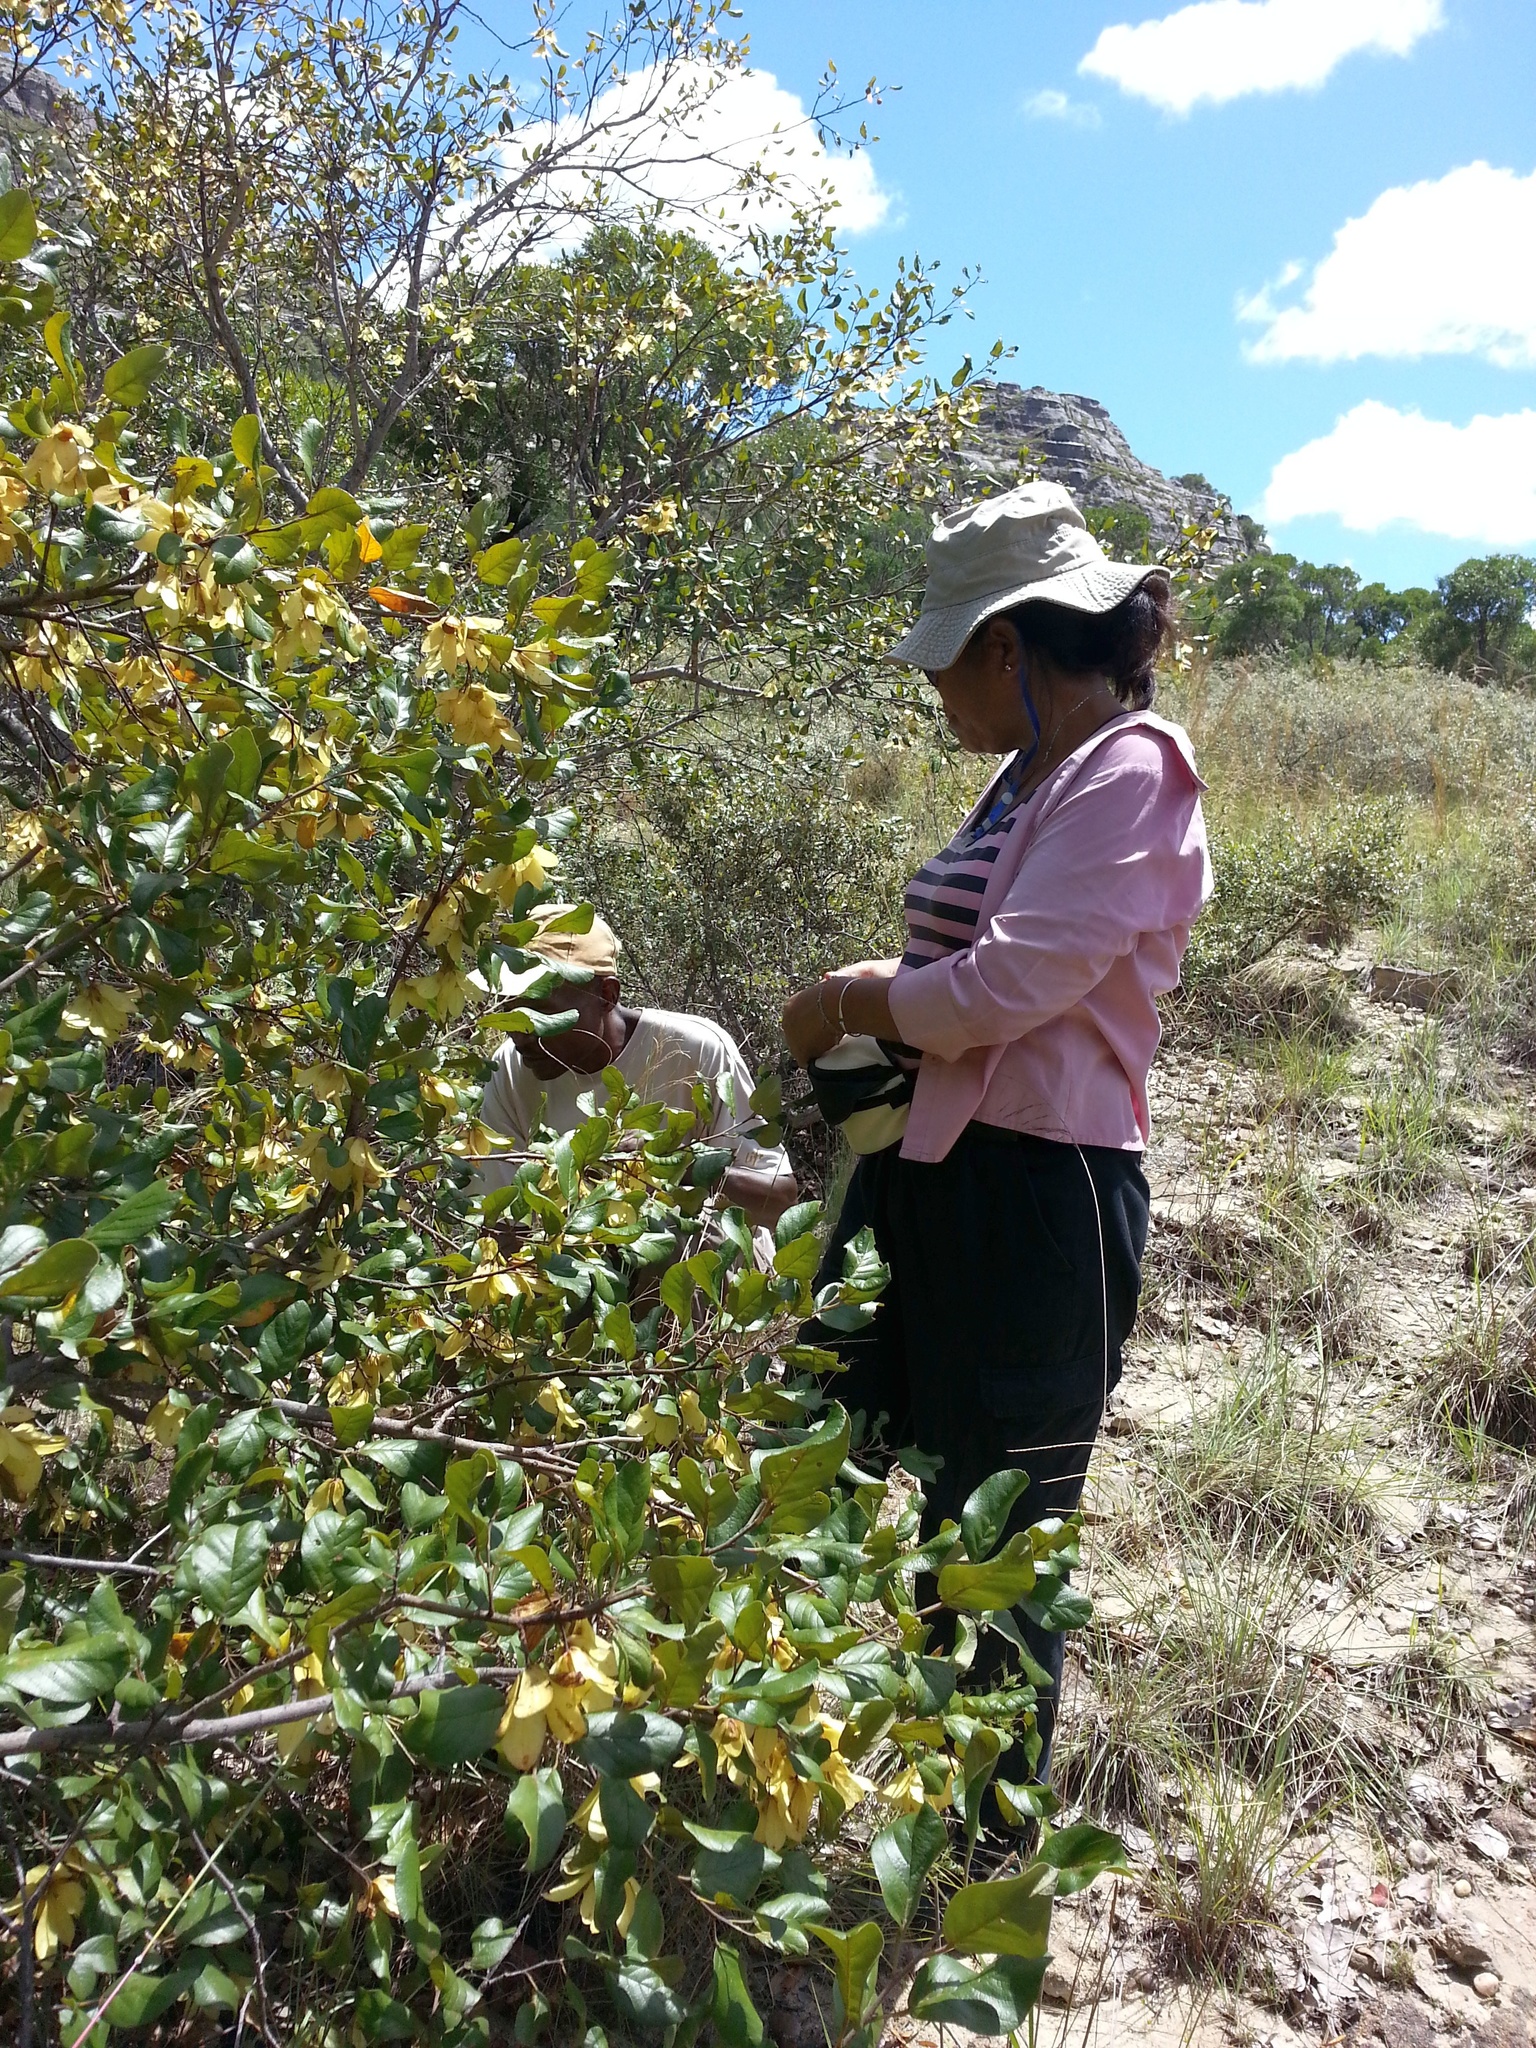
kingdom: Plantae
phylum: Tracheophyta
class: Magnoliopsida
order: Malvales
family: Dipterocarpaceae
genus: Monotes
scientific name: Monotes madagascariensis
